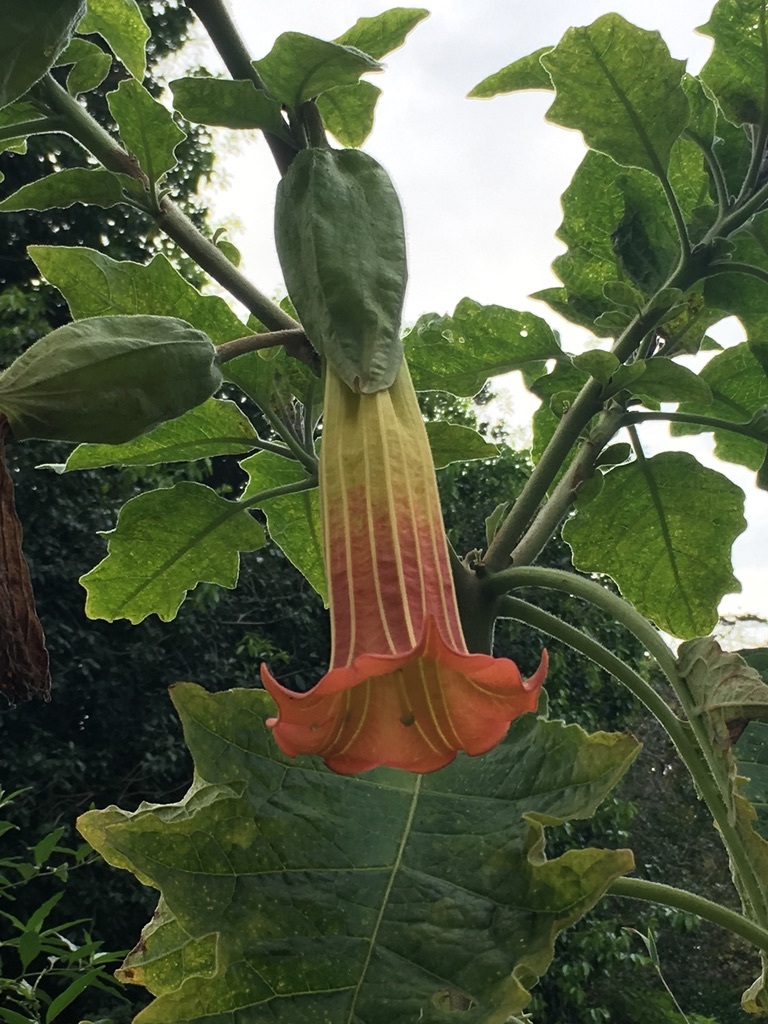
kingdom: Plantae
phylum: Tracheophyta
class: Magnoliopsida
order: Solanales
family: Solanaceae
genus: Brugmansia
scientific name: Brugmansia sanguinea
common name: Red floripontio
